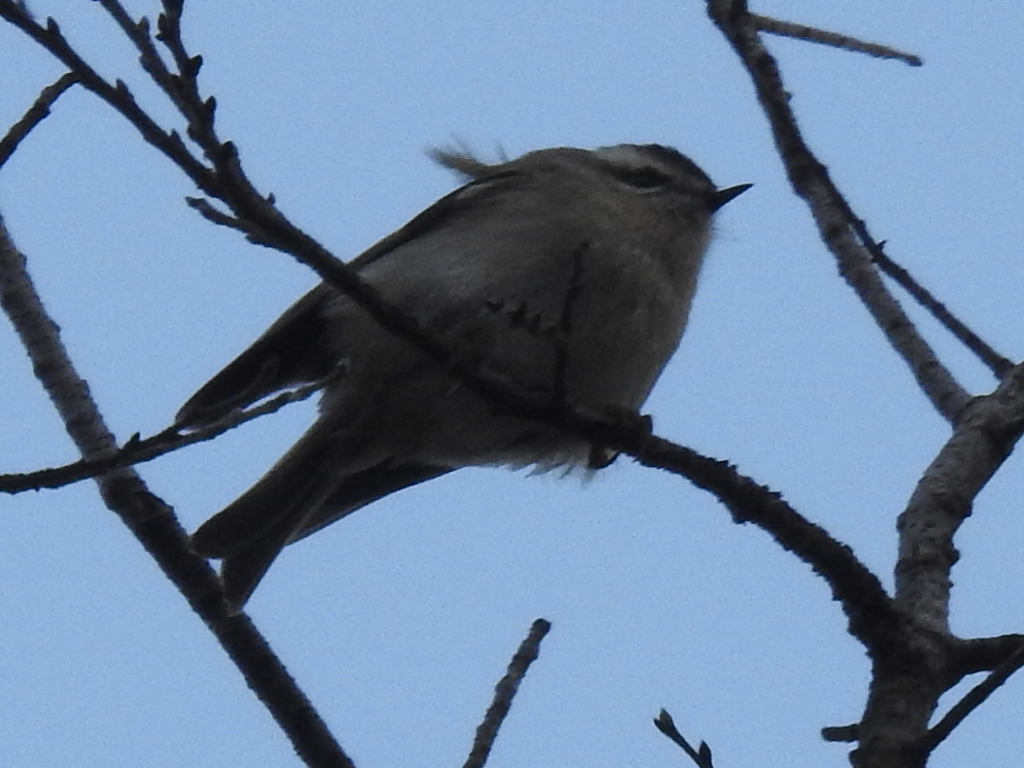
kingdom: Animalia
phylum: Chordata
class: Aves
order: Passeriformes
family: Regulidae
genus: Regulus
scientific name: Regulus satrapa
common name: Golden-crowned kinglet
